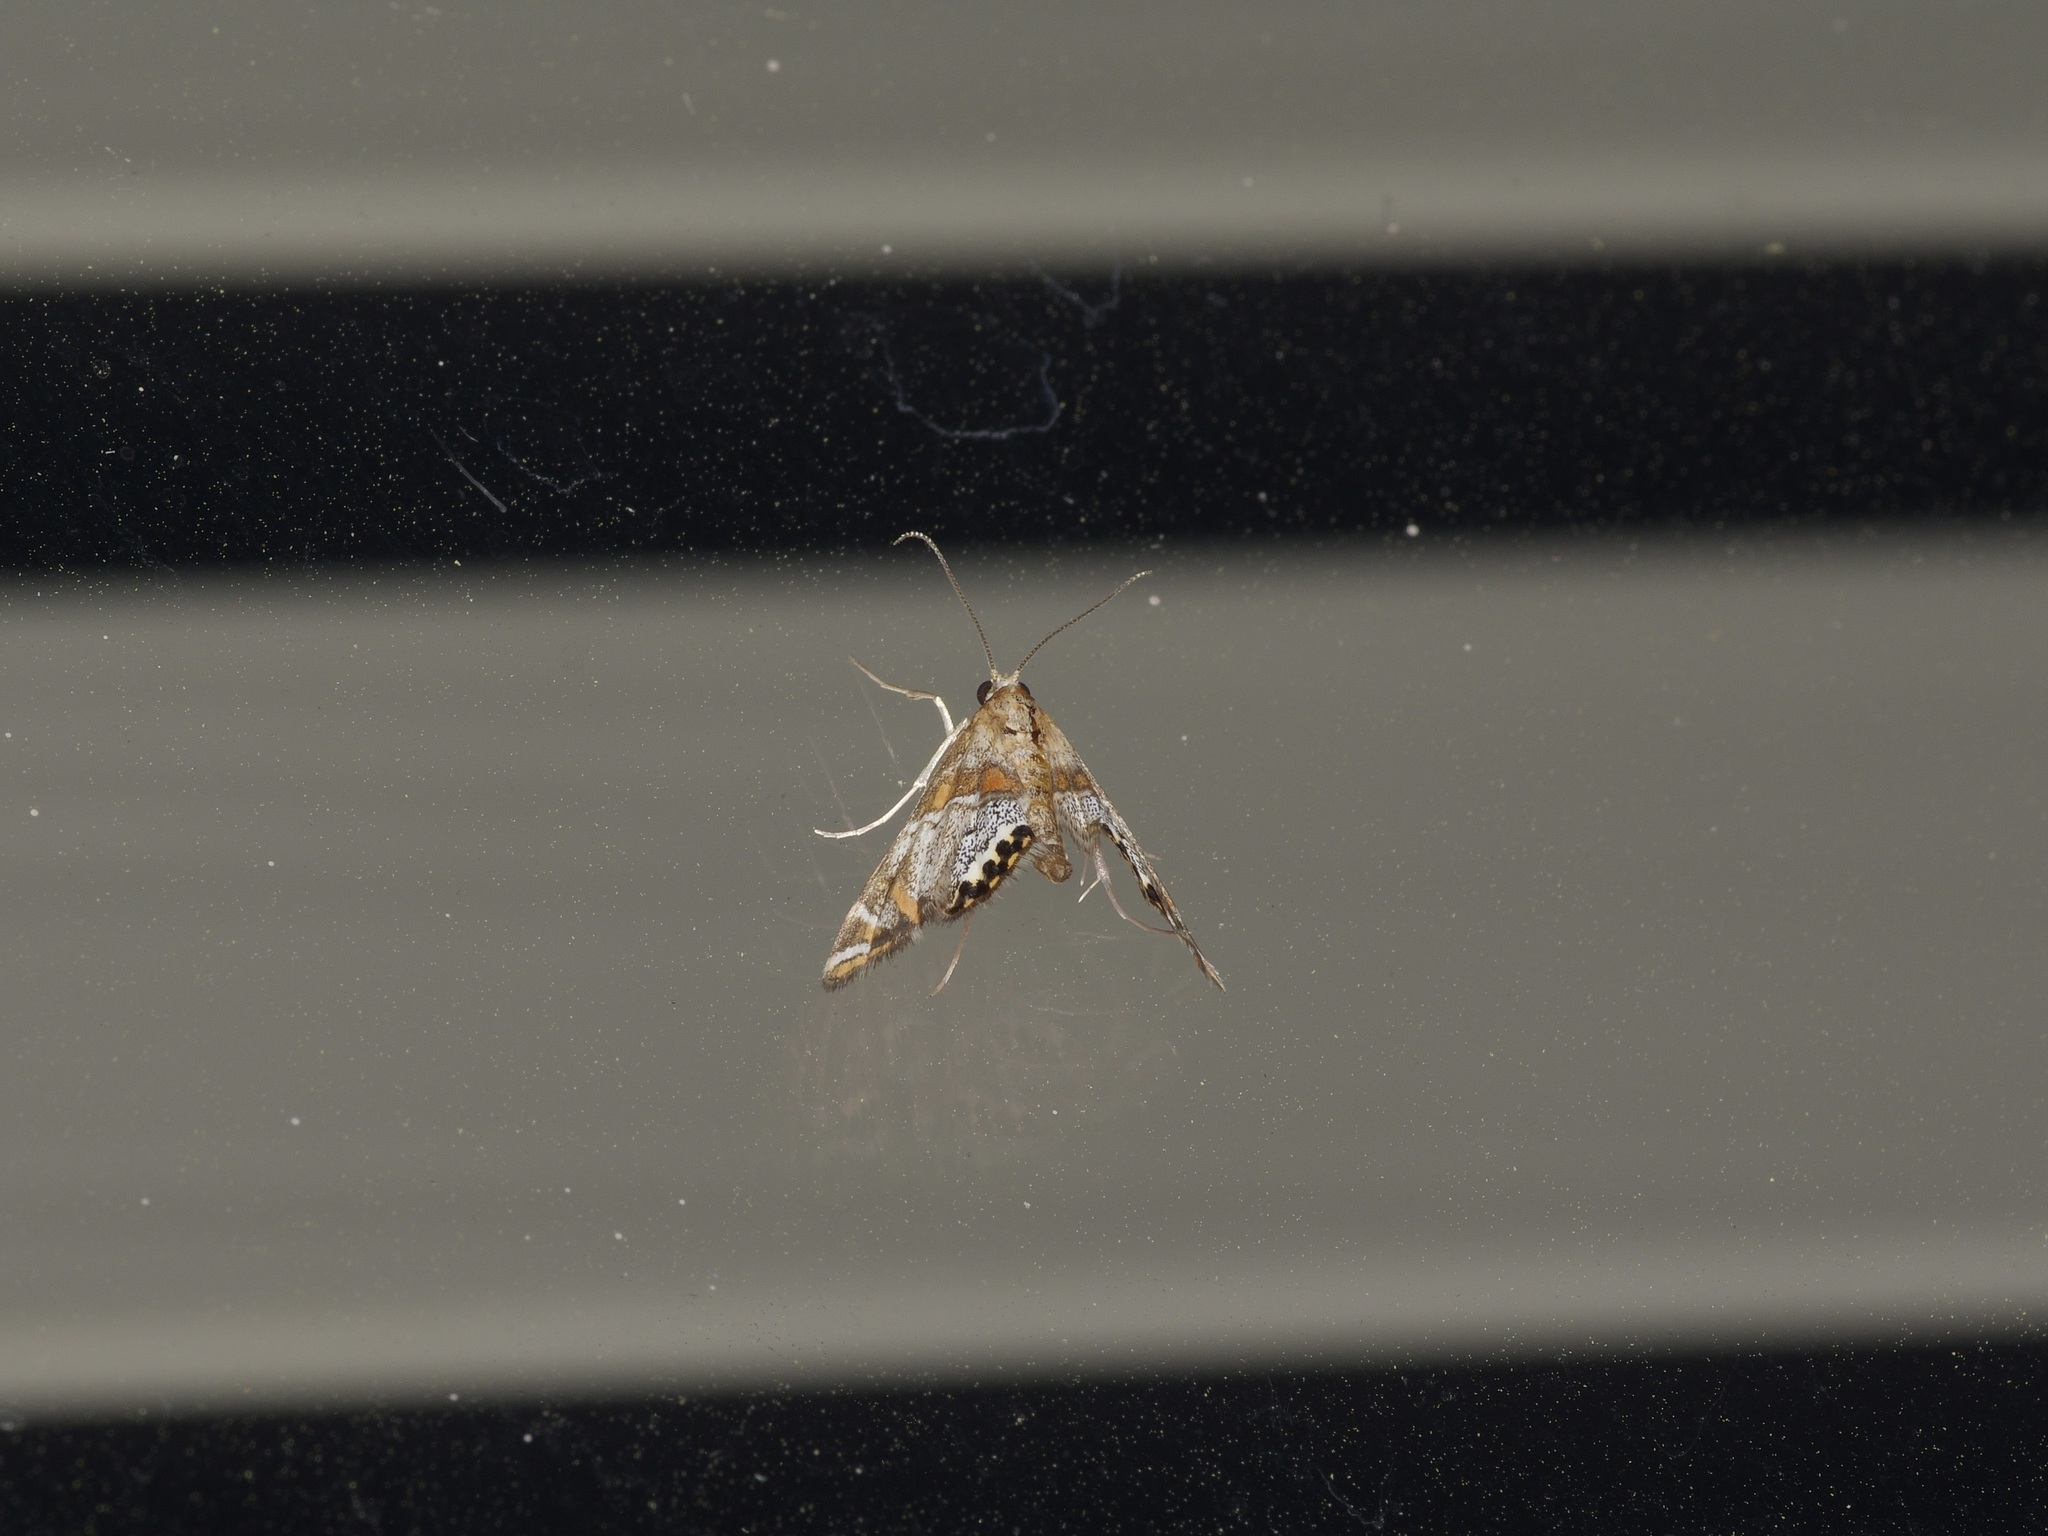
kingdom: Animalia
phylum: Arthropoda
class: Insecta
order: Lepidoptera
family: Crambidae
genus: Petrophila
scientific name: Petrophila jaliscalis
